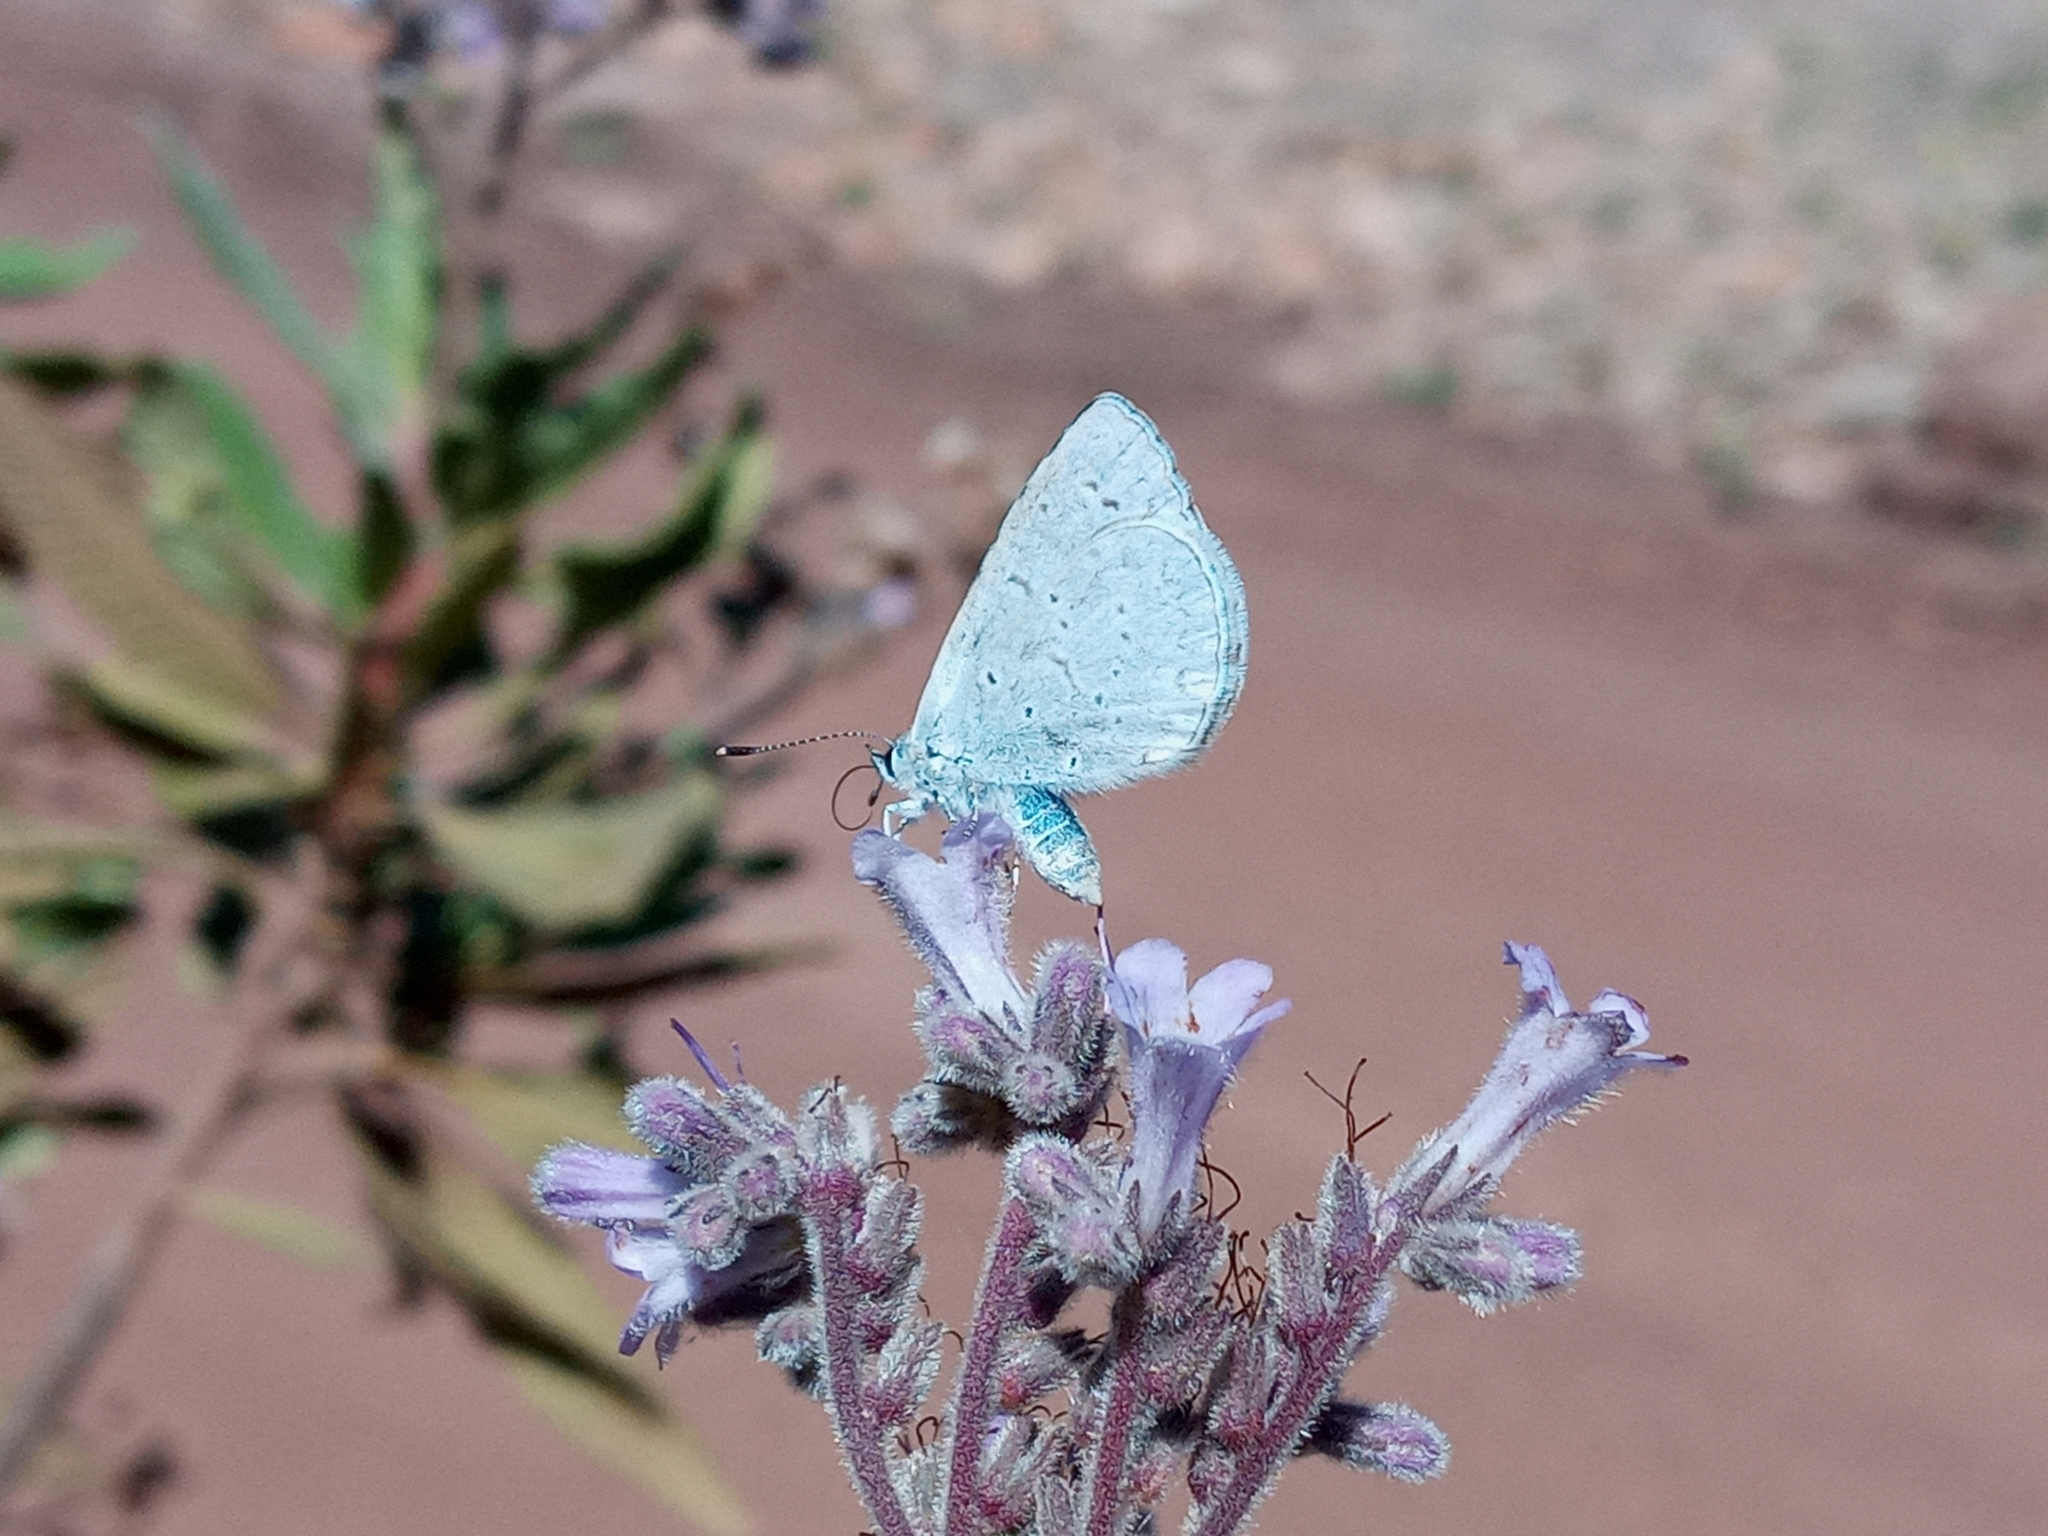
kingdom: Animalia
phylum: Arthropoda
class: Insecta
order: Lepidoptera
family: Lycaenidae
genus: Celastrina
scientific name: Celastrina ladon
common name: Spring azure
